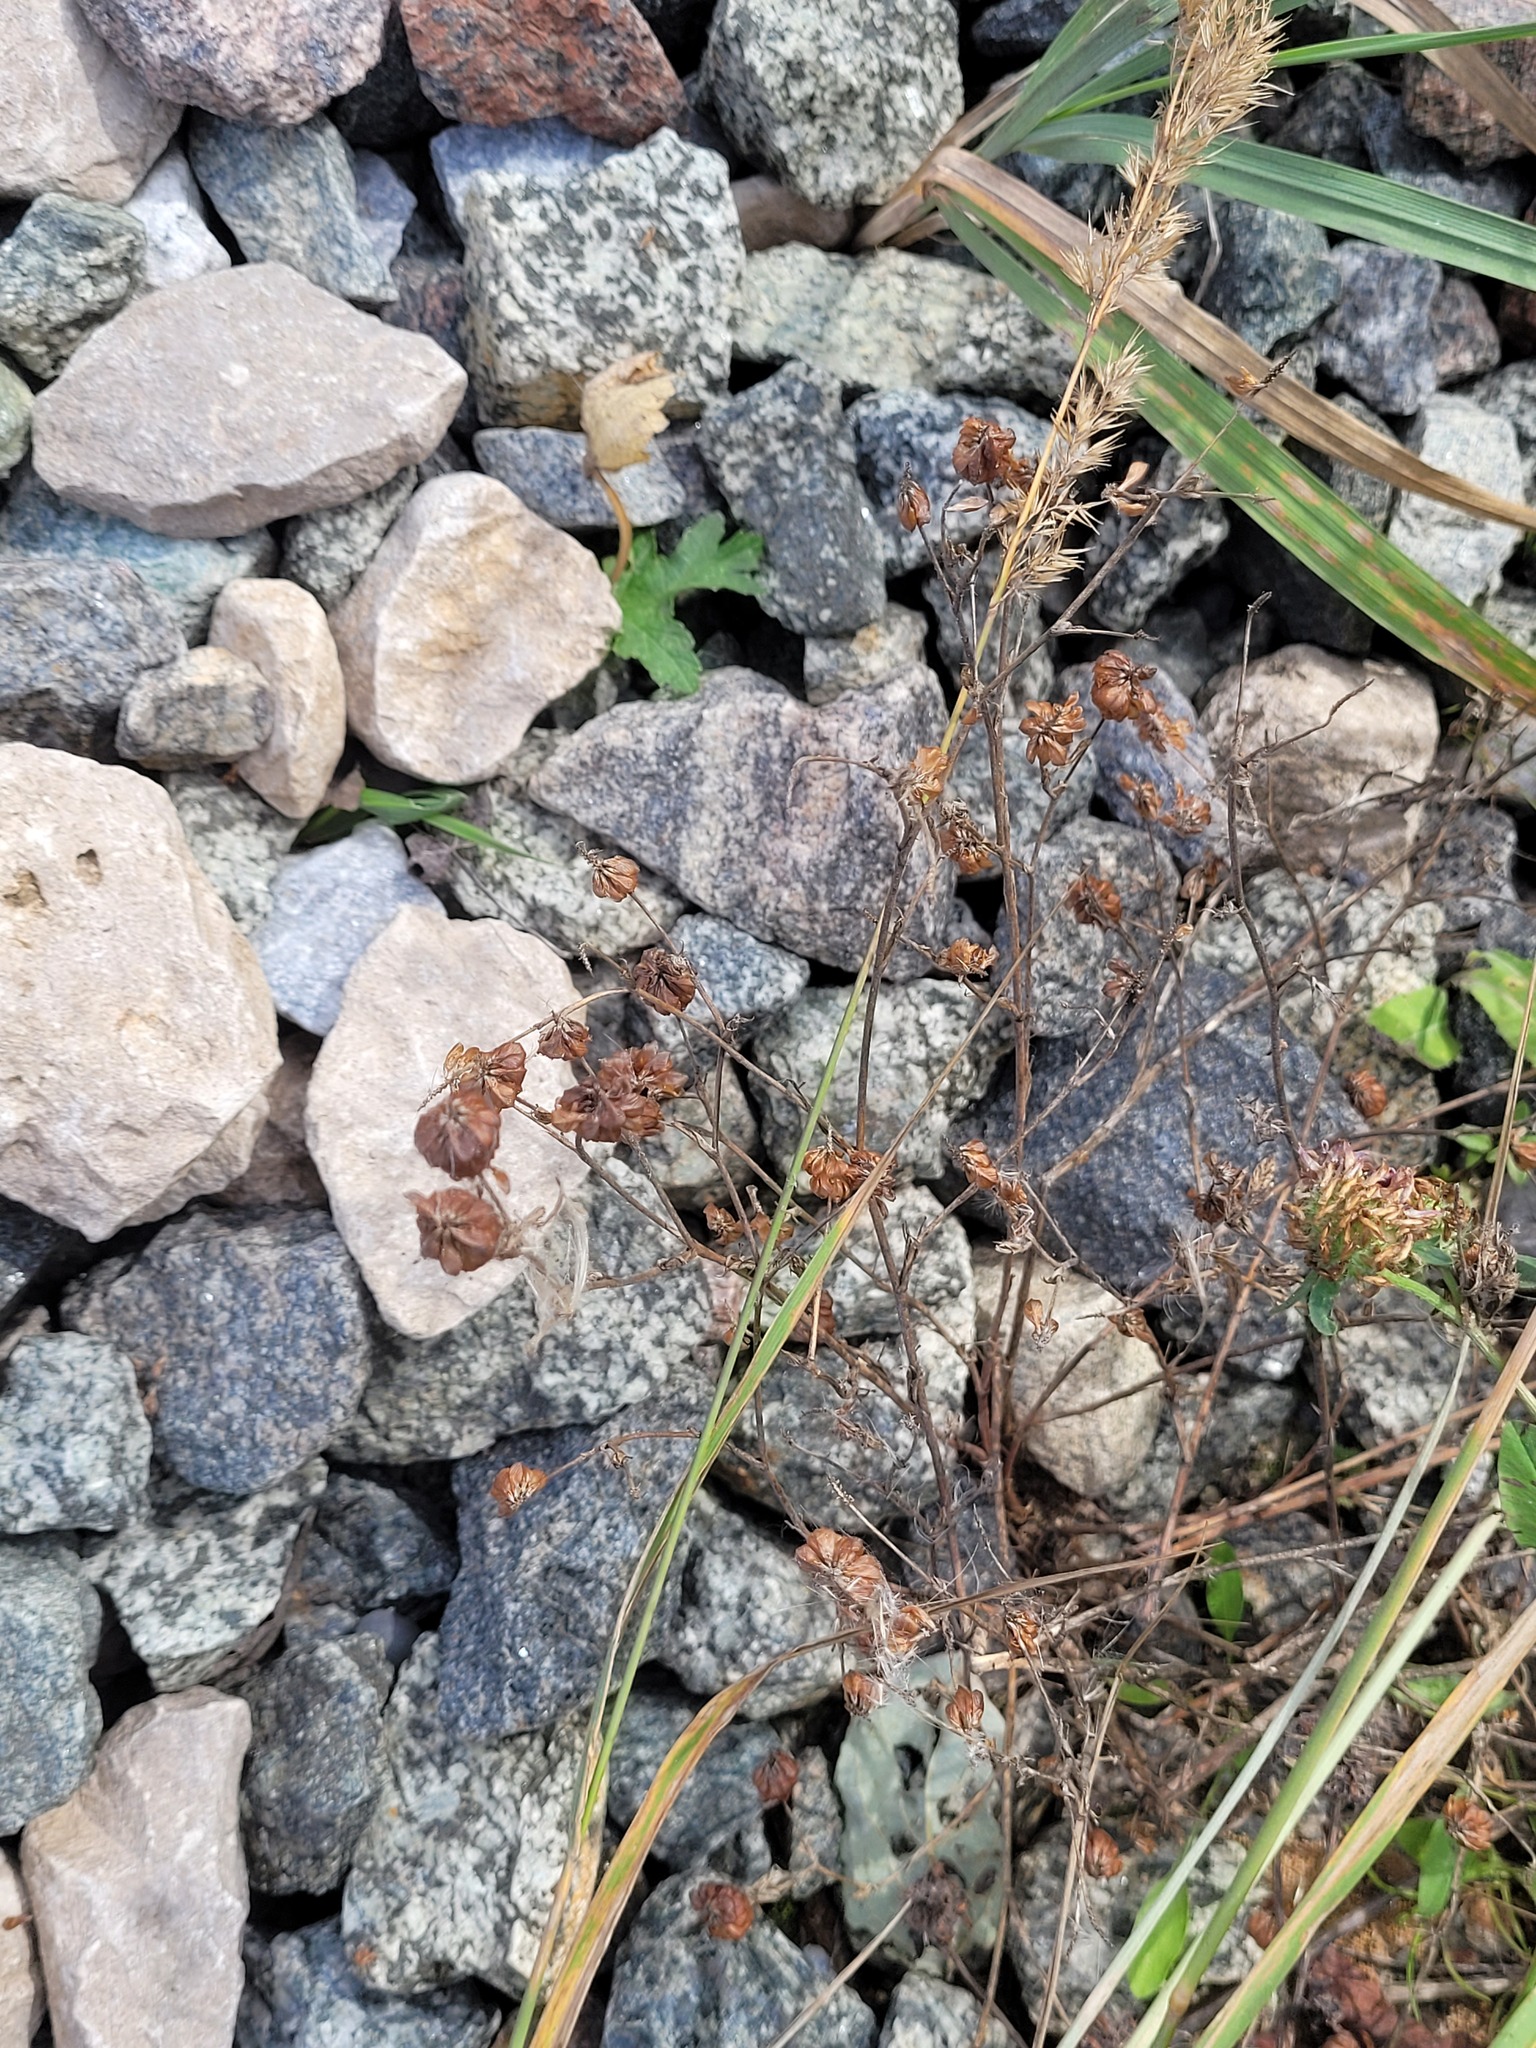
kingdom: Plantae
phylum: Tracheophyta
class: Magnoliopsida
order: Fabales
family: Fabaceae
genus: Trifolium
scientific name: Trifolium aureum
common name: Golden clover
